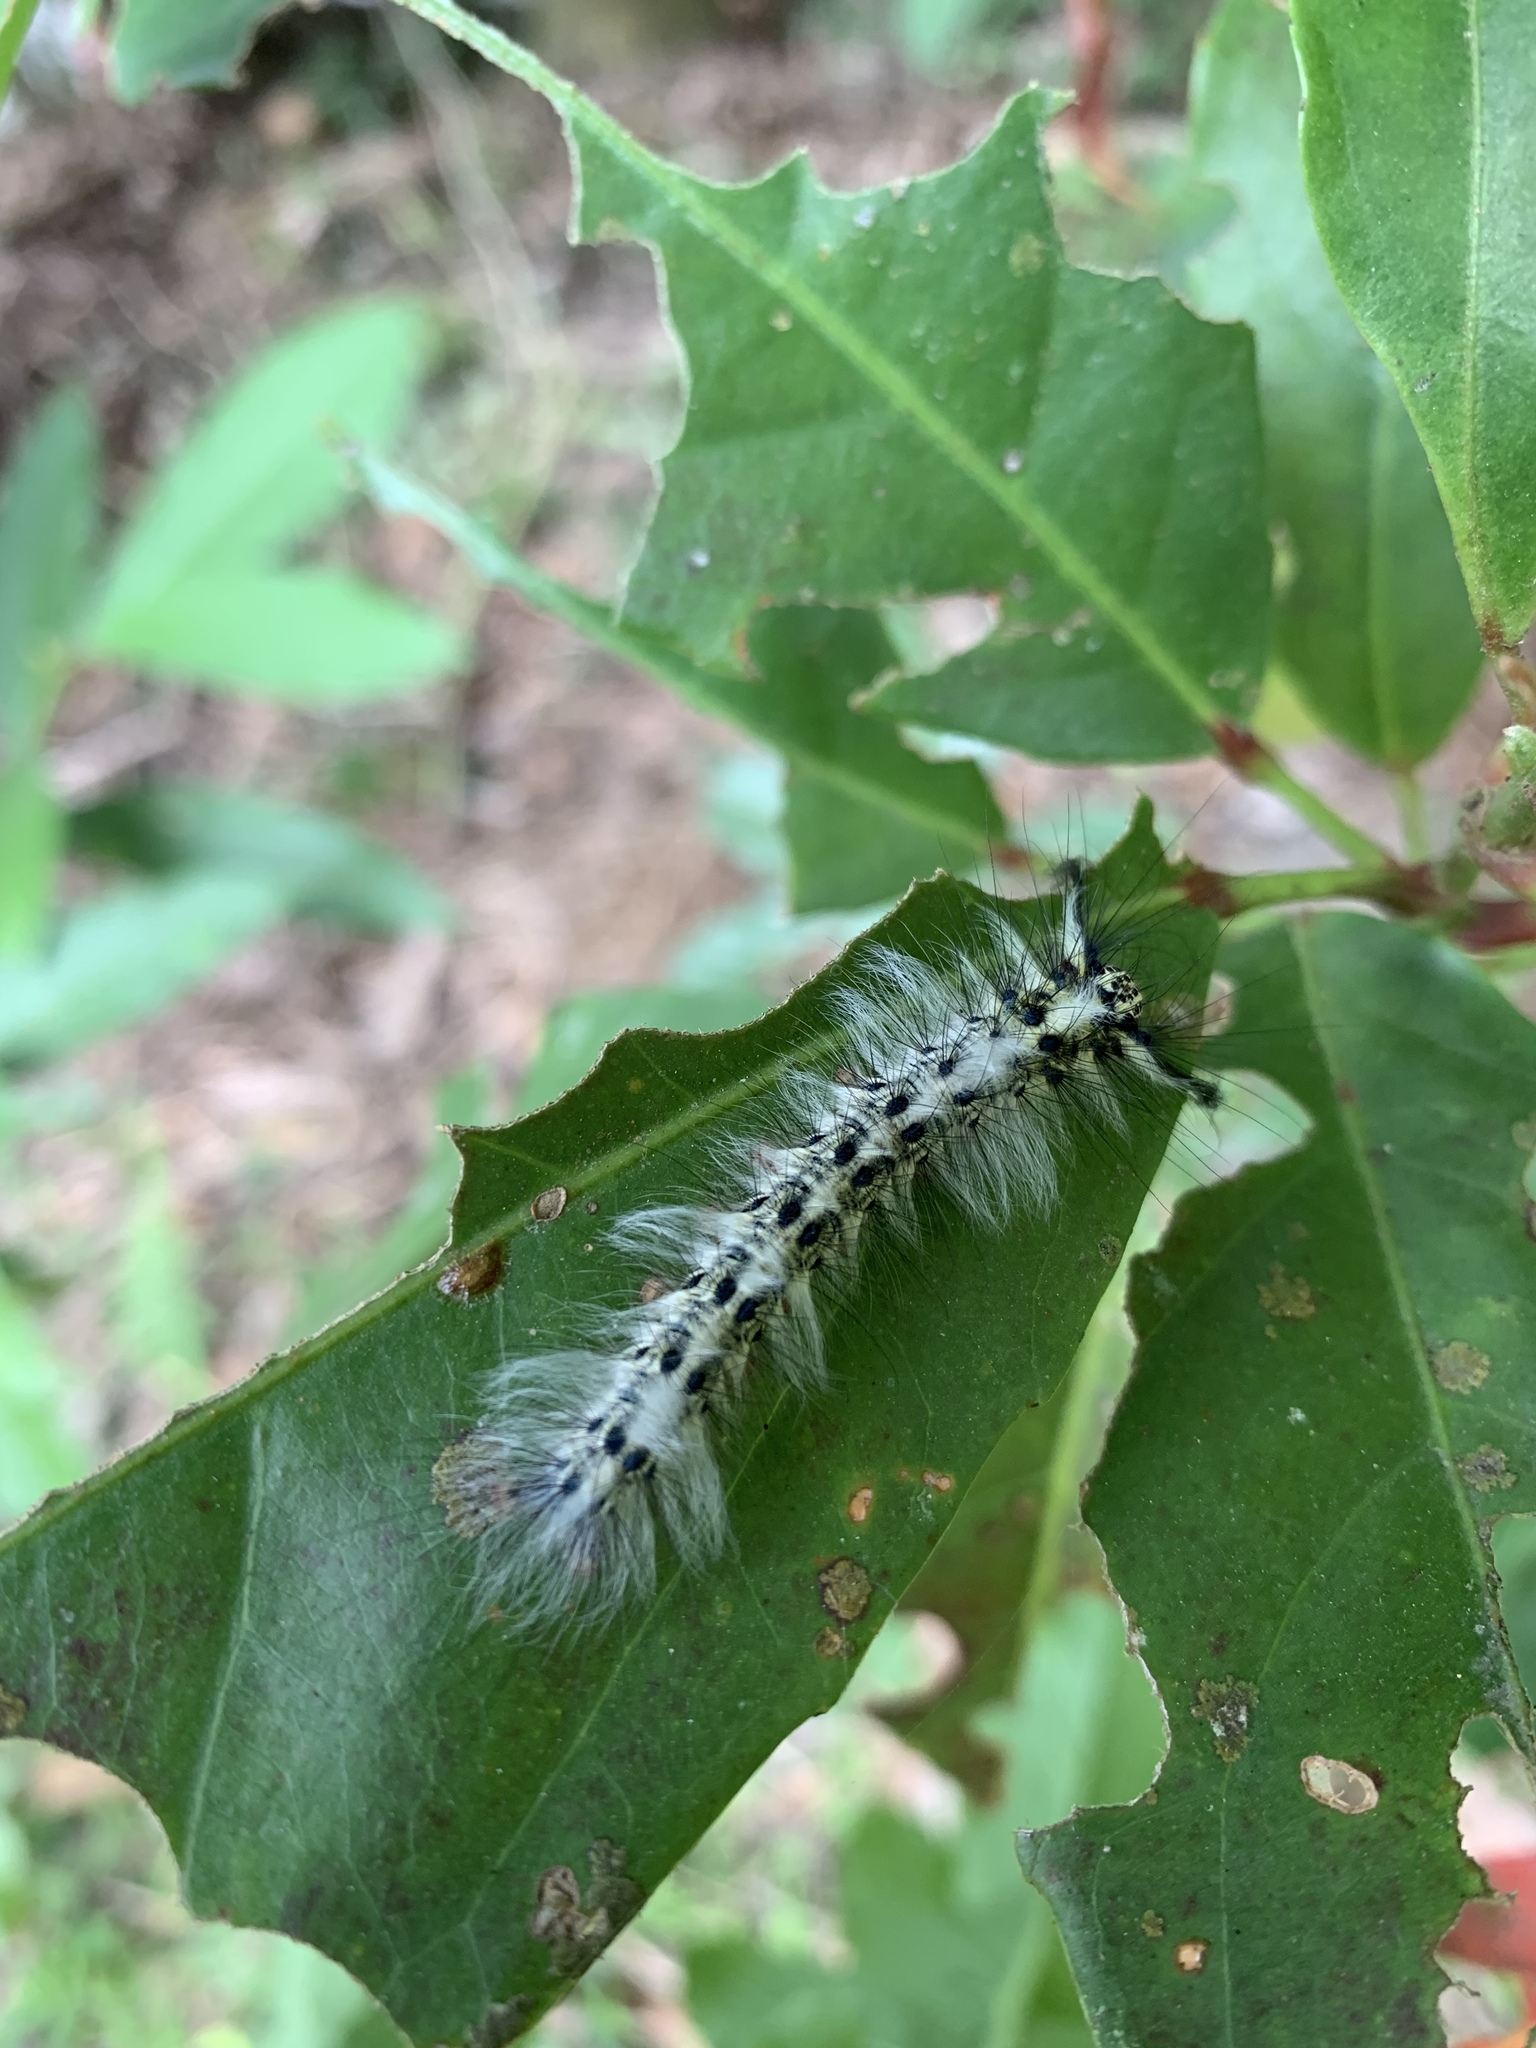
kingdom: Animalia
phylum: Arthropoda
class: Insecta
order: Lepidoptera
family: Lasiocampidae
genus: Trabala
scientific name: Trabala vishnou
